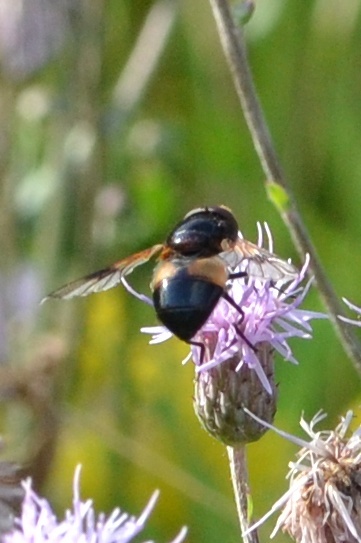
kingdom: Animalia
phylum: Arthropoda
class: Insecta
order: Diptera
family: Syrphidae
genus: Volucella
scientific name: Volucella pellucens
